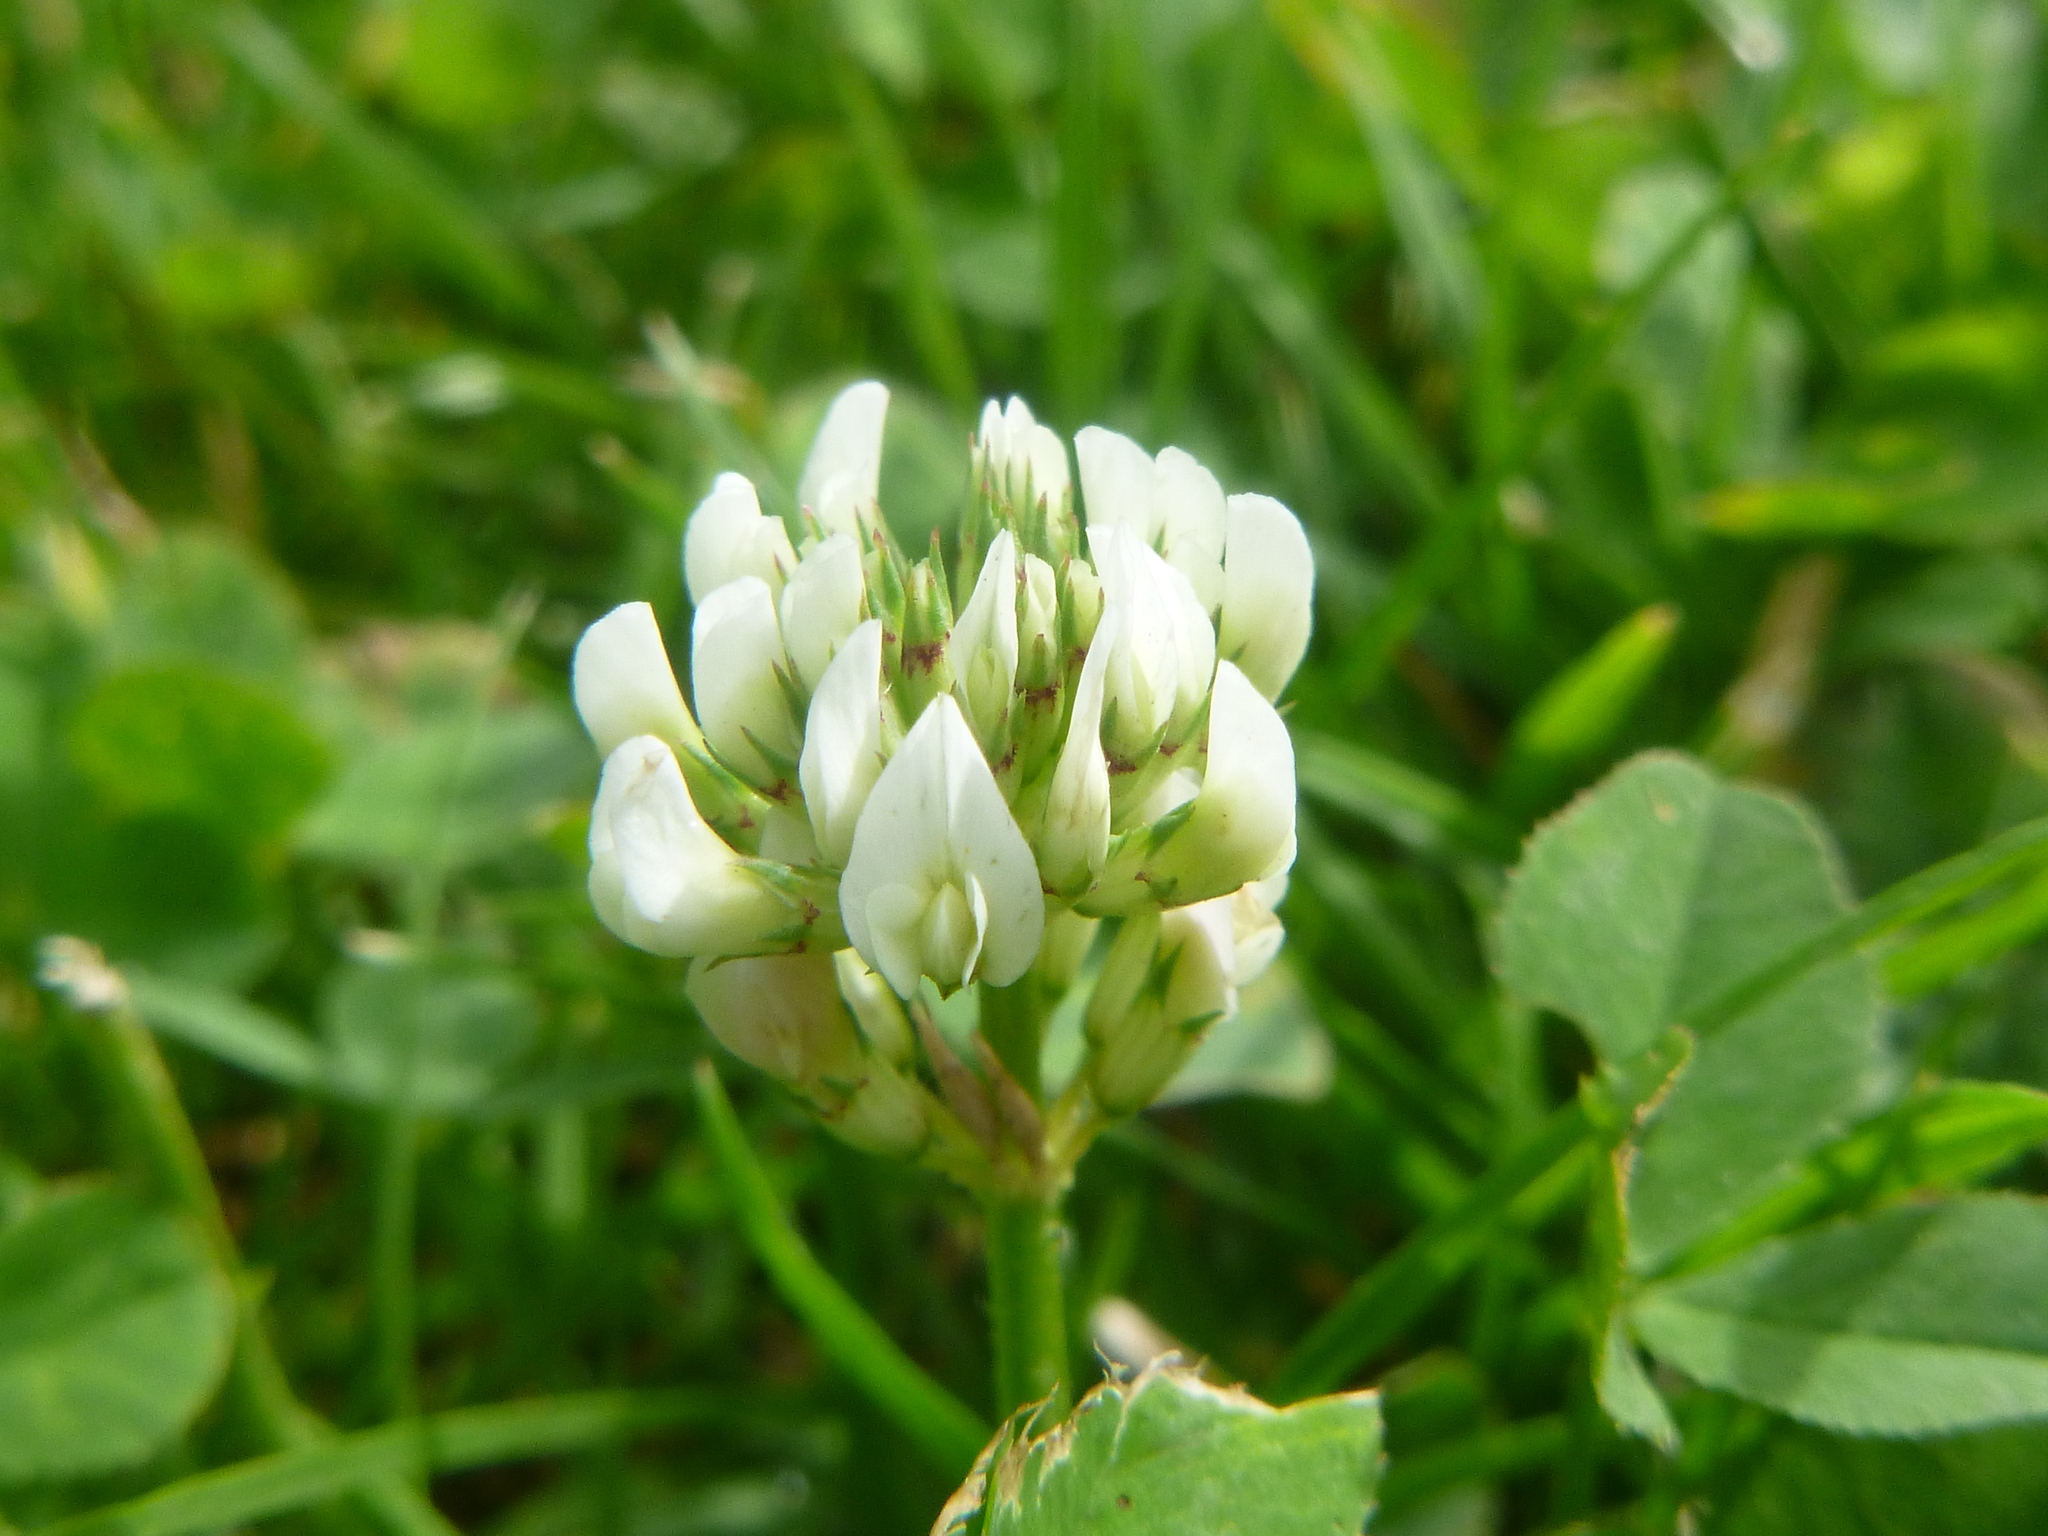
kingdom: Plantae
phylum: Tracheophyta
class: Magnoliopsida
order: Fabales
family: Fabaceae
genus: Trifolium
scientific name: Trifolium repens
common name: White clover
